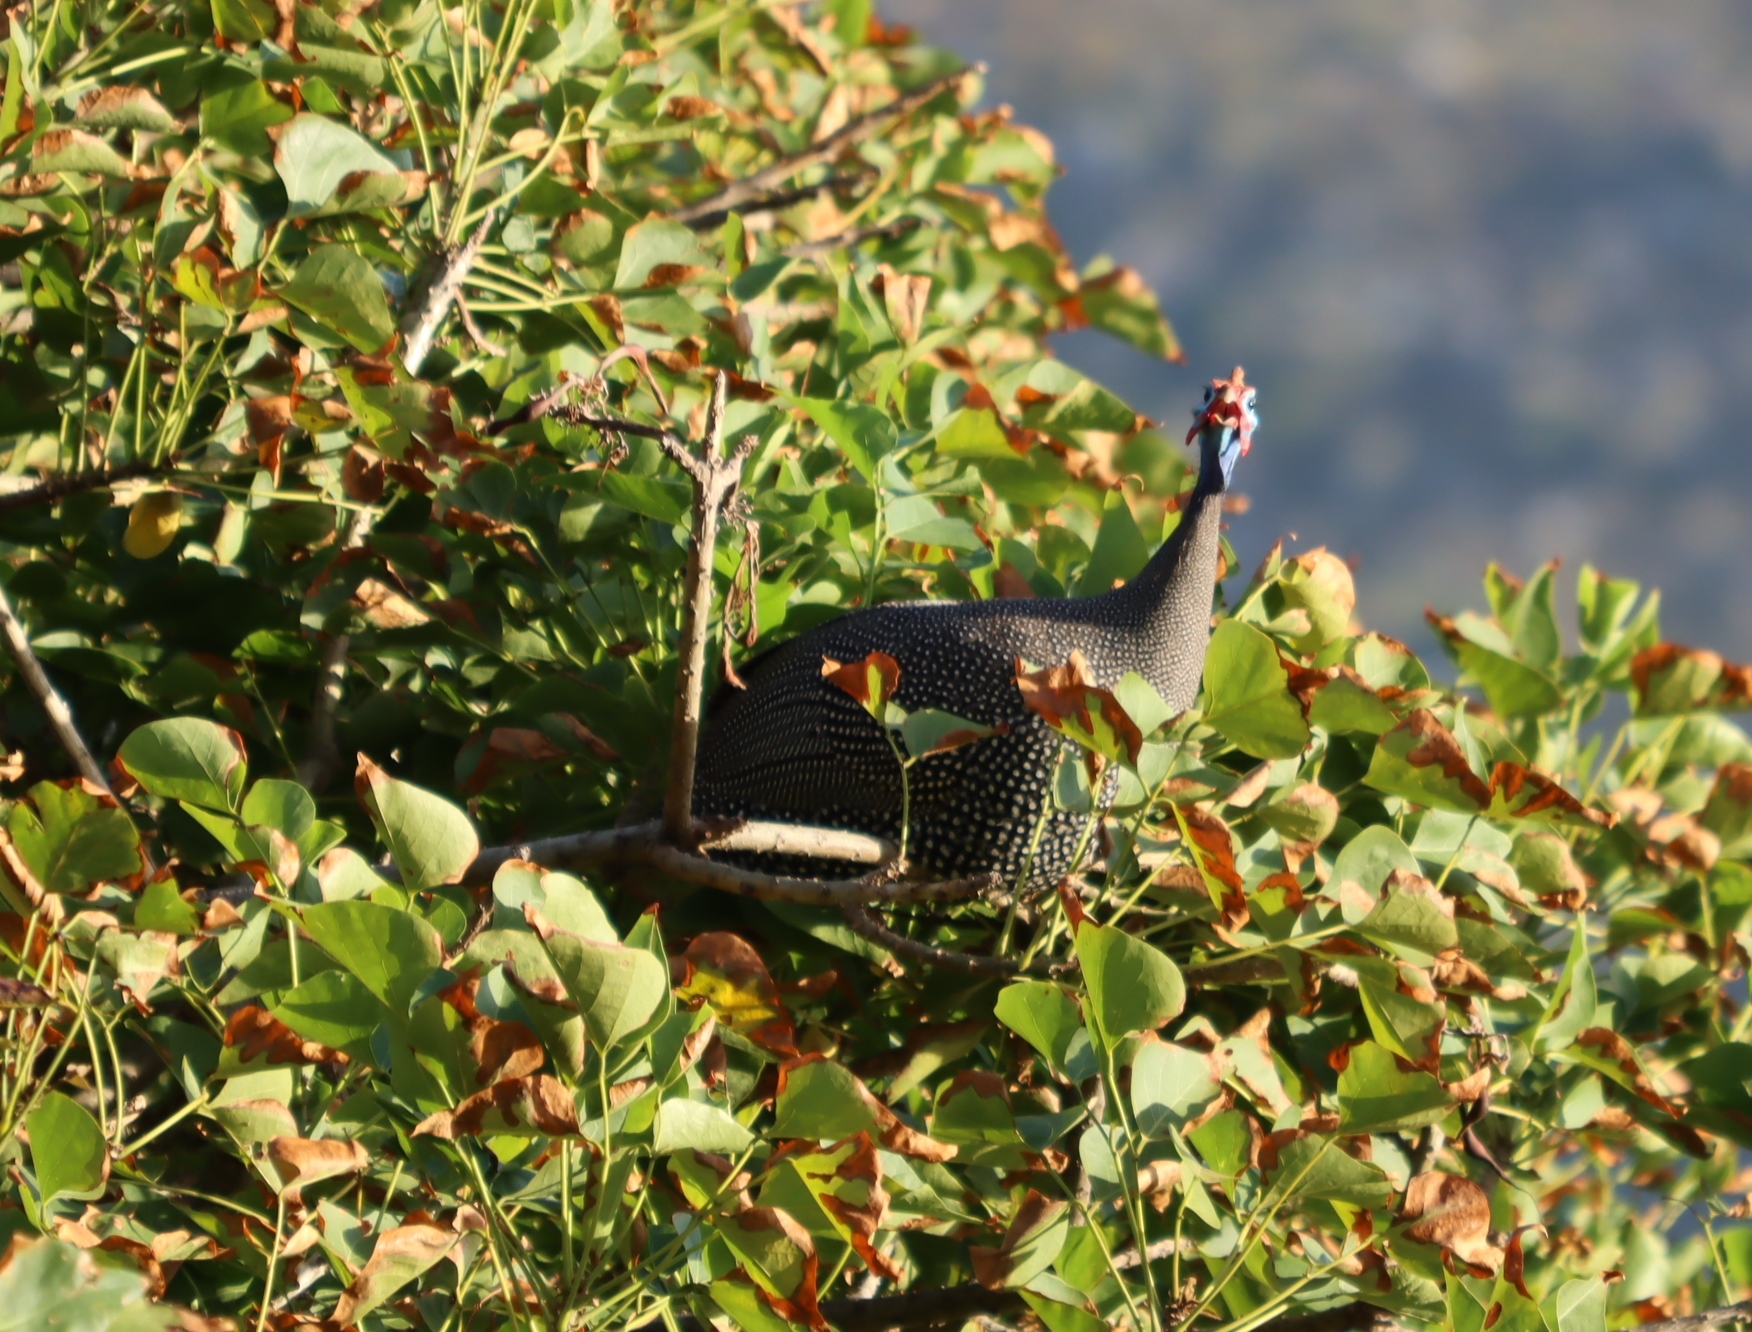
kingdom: Animalia
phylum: Chordata
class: Aves
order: Galliformes
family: Numididae
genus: Numida
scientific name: Numida meleagris
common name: Helmeted guineafowl
